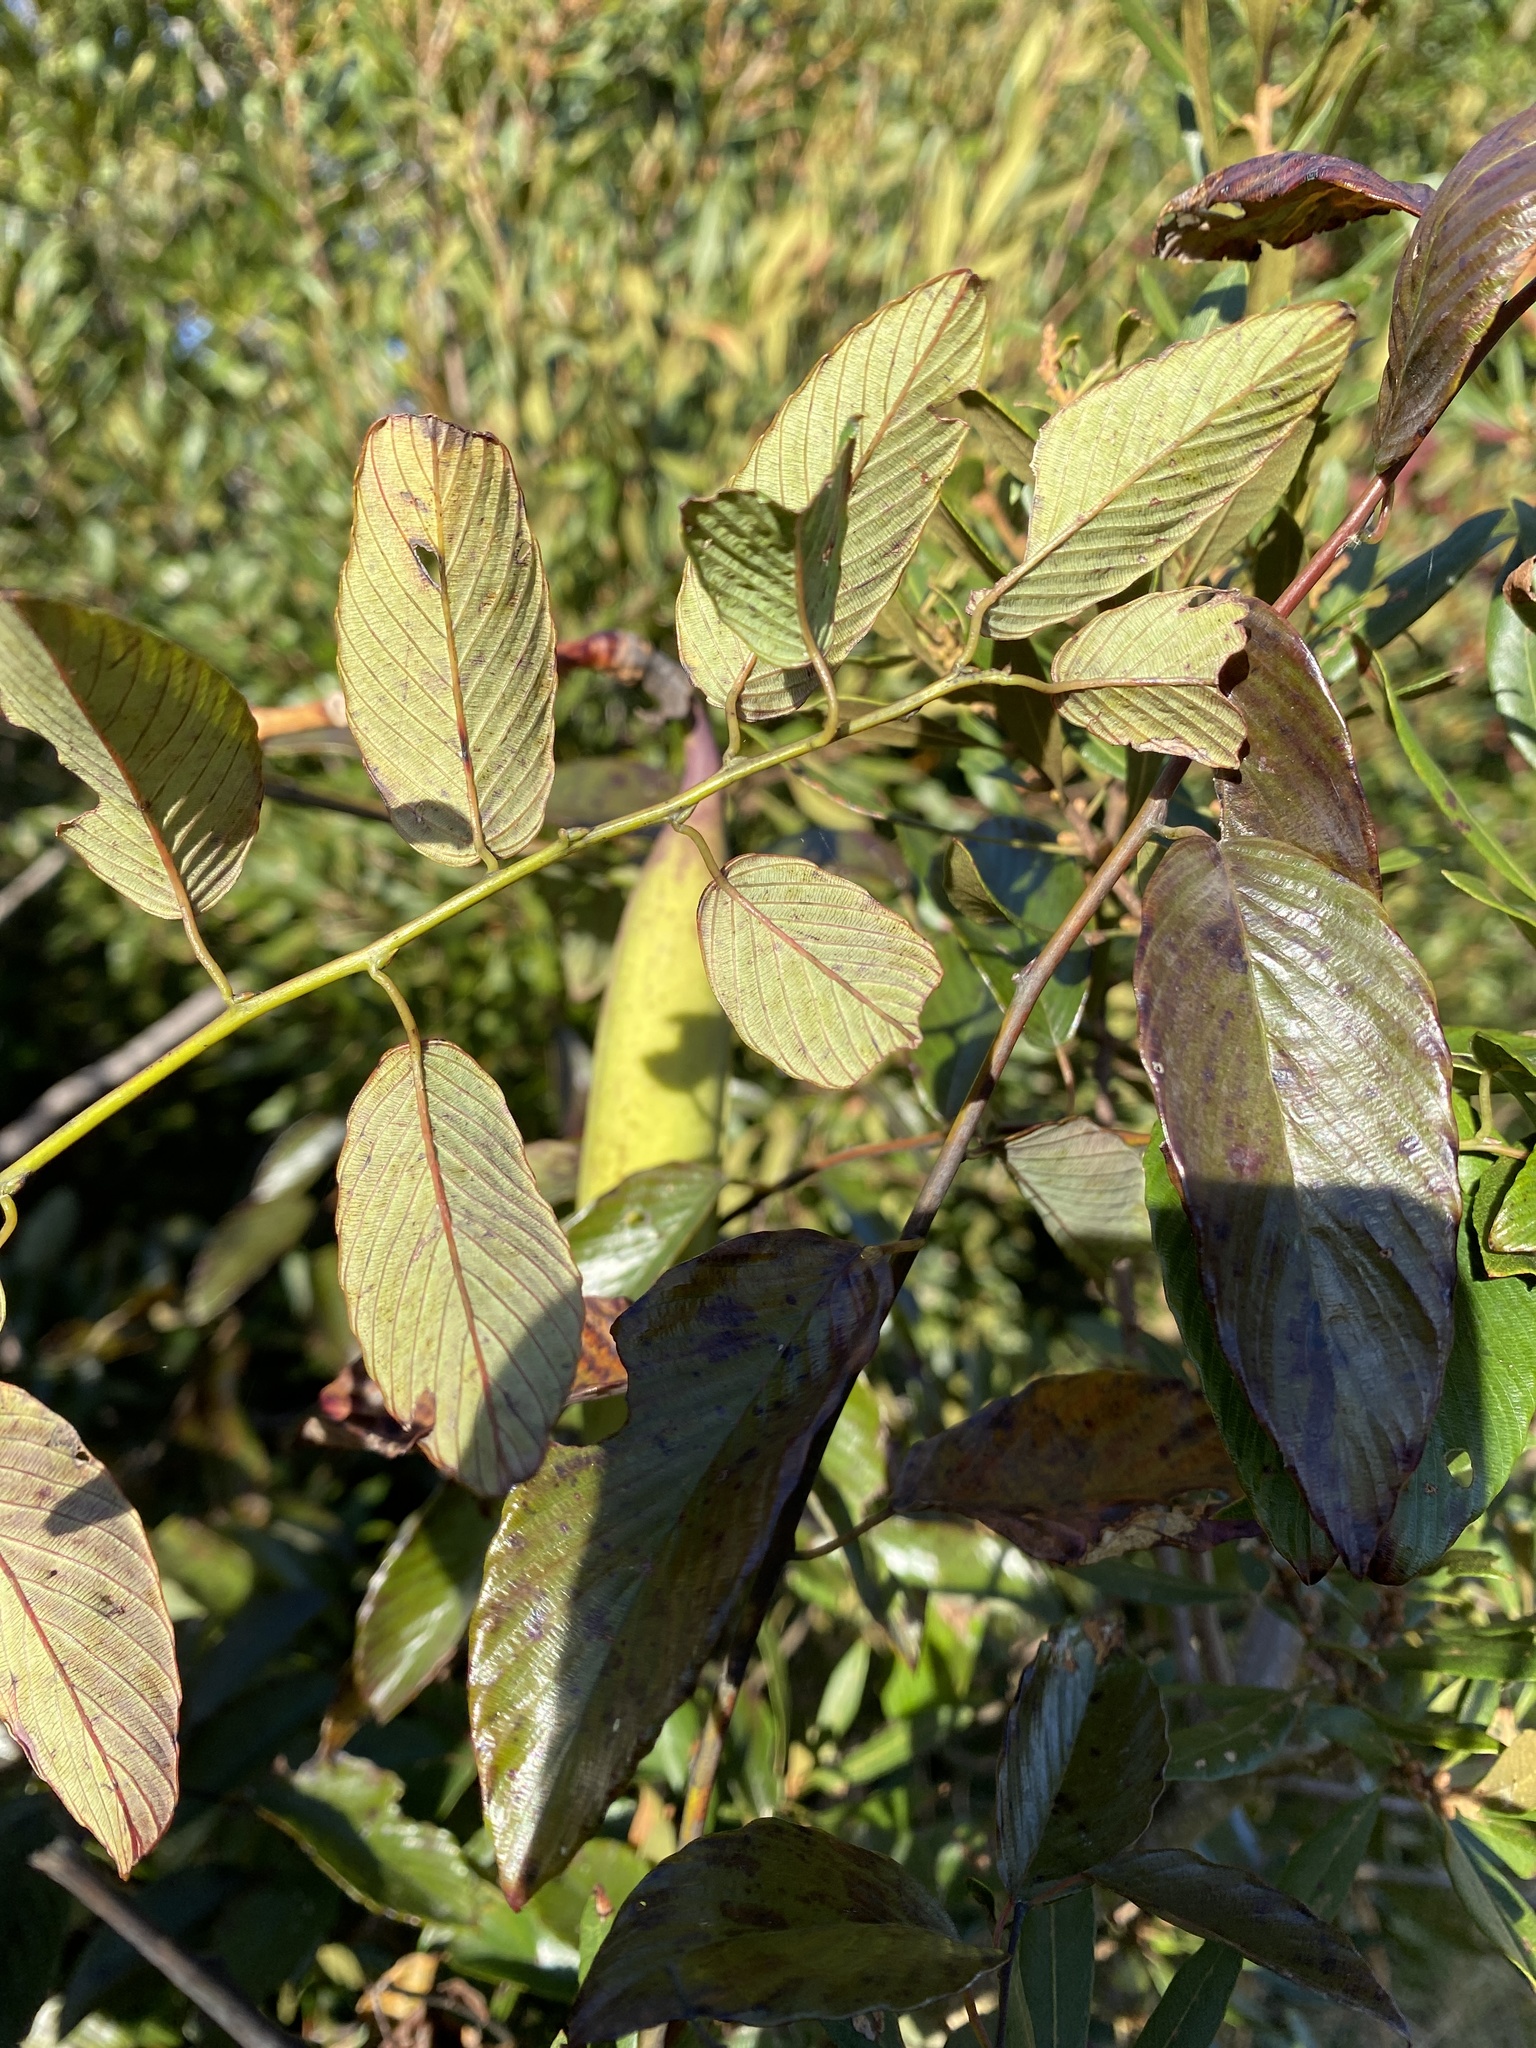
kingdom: Plantae
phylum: Tracheophyta
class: Magnoliopsida
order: Rosales
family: Rhamnaceae
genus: Berchemia
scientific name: Berchemia scandens
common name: Supplejack
